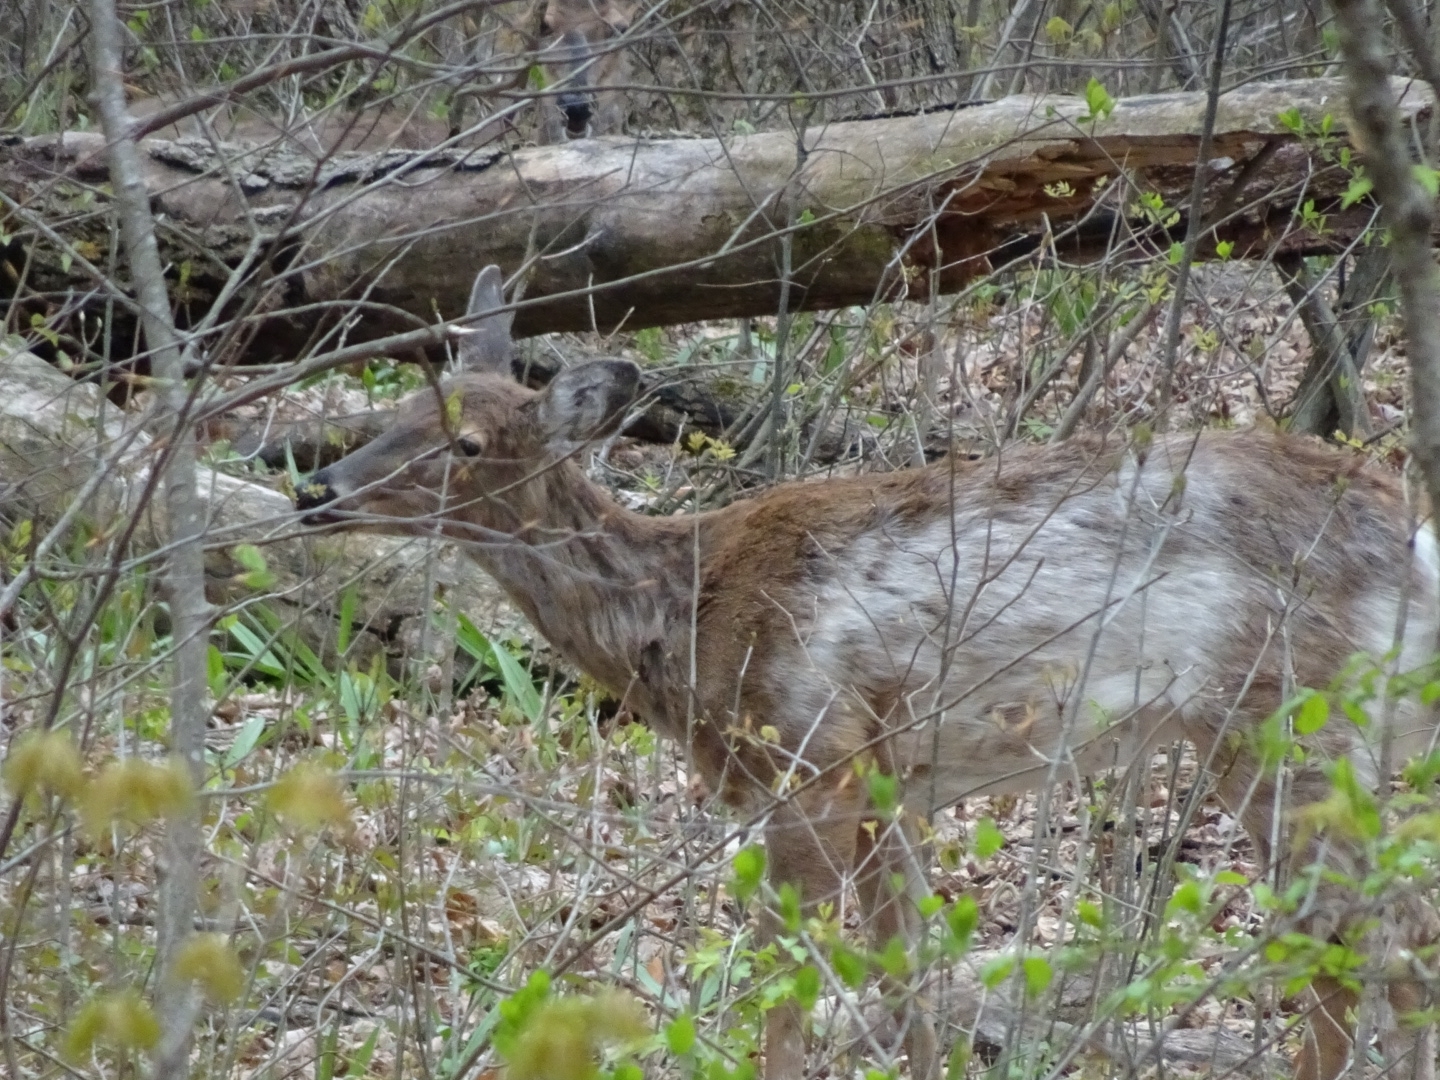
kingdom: Animalia
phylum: Chordata
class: Mammalia
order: Artiodactyla
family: Cervidae
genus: Odocoileus
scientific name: Odocoileus virginianus
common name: White-tailed deer
